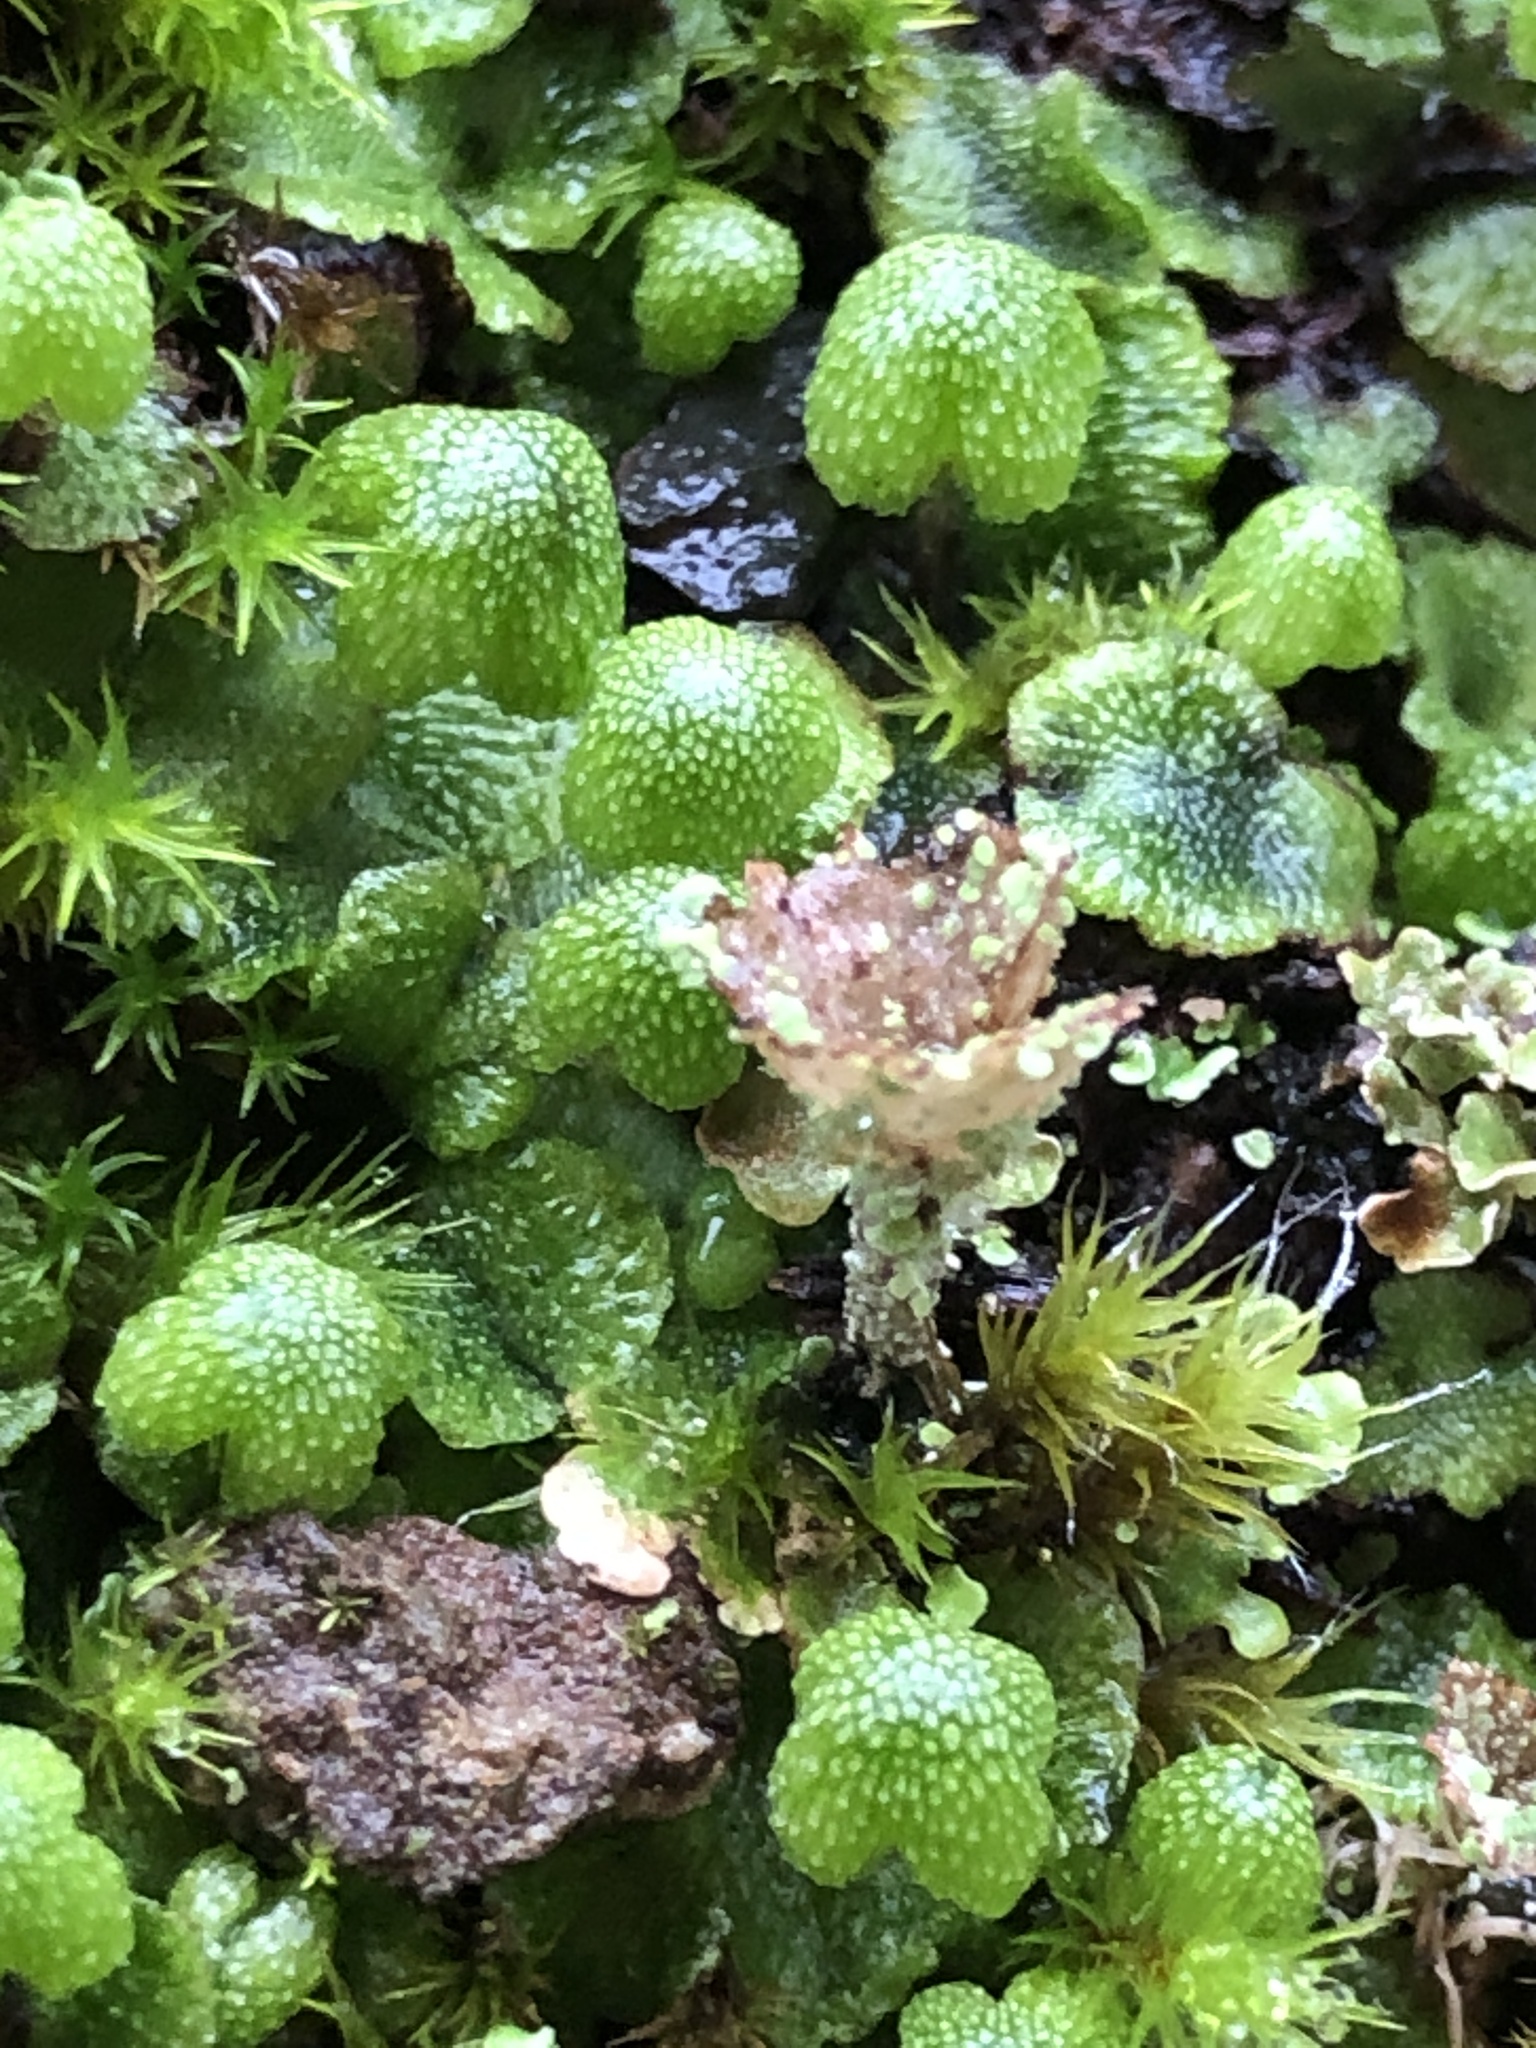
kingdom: Plantae
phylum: Marchantiophyta
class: Marchantiopsida
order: Marchantiales
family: Aytoniaceae
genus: Asterella
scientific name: Asterella californica
